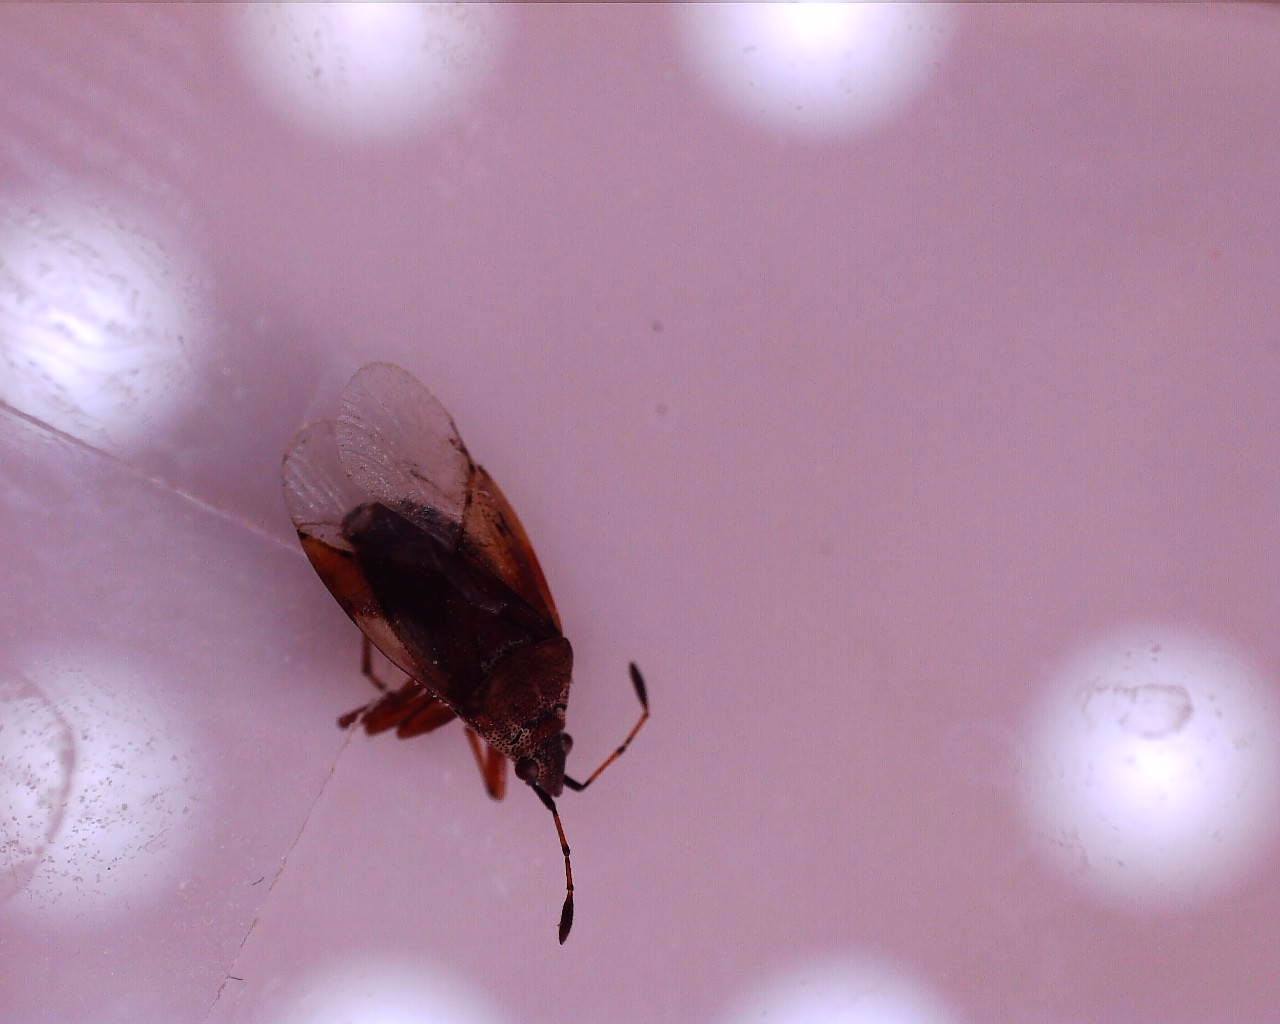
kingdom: Animalia
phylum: Arthropoda
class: Insecta
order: Hemiptera
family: Lygaeidae
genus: Kleidocerys
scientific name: Kleidocerys resedae
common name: Birch catkin bug
